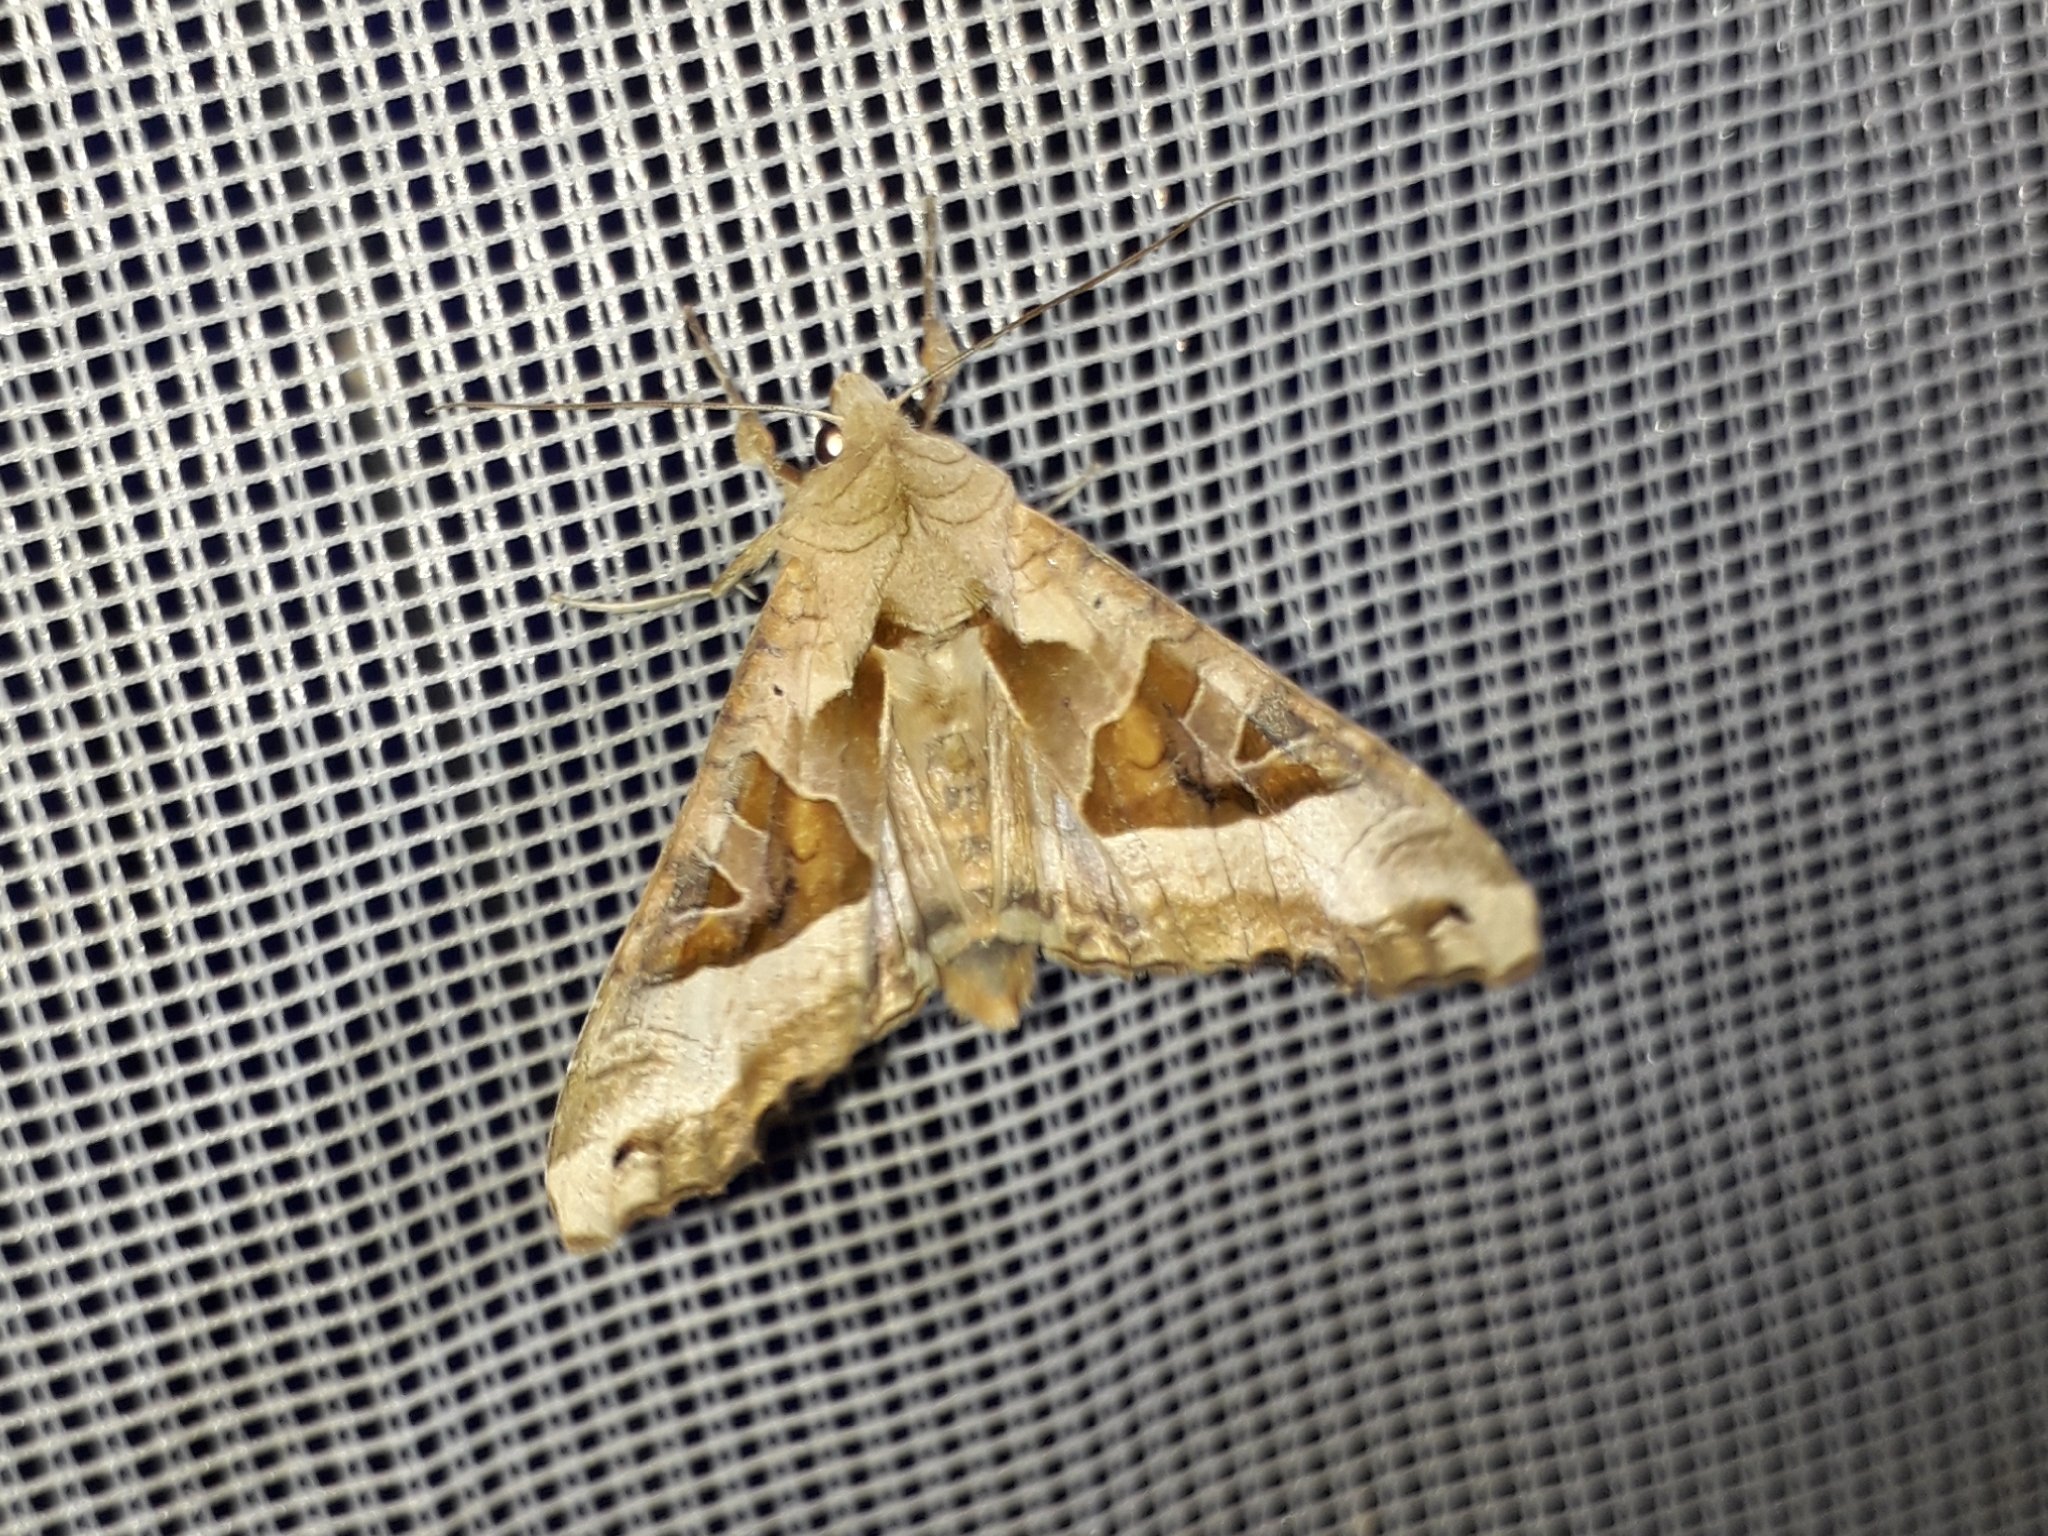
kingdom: Animalia
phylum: Arthropoda
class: Insecta
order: Lepidoptera
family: Noctuidae
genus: Phlogophora
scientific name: Phlogophora meticulosa
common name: Angle shades
